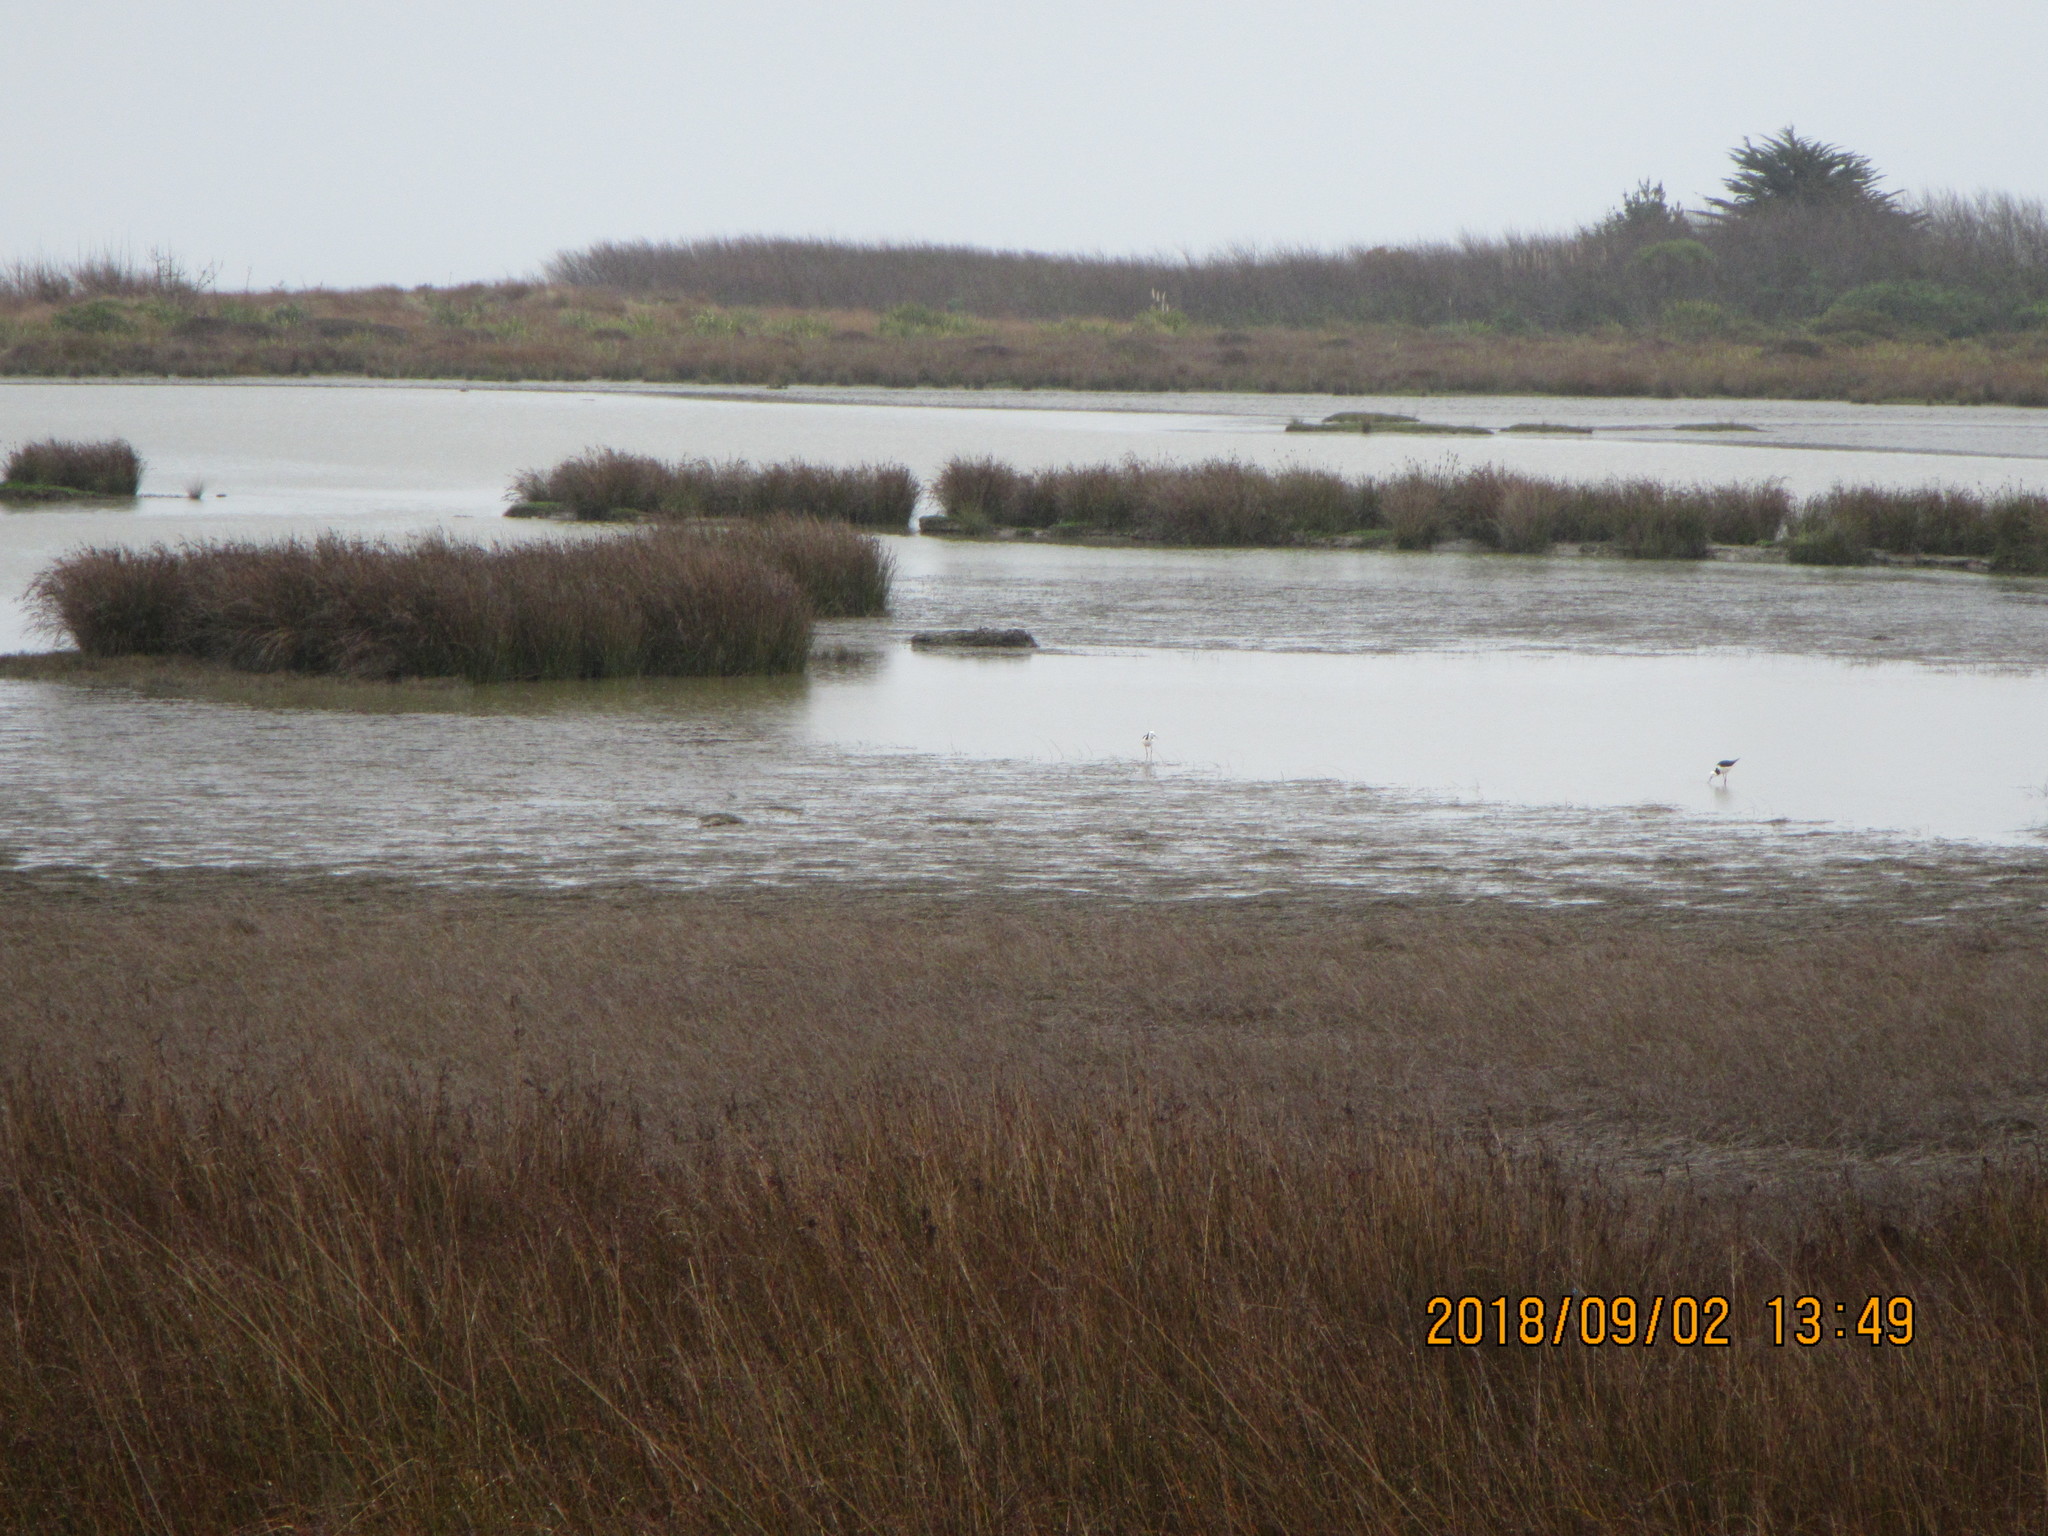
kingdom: Animalia
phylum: Chordata
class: Aves
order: Charadriiformes
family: Recurvirostridae
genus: Himantopus
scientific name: Himantopus leucocephalus
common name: White-headed stilt
